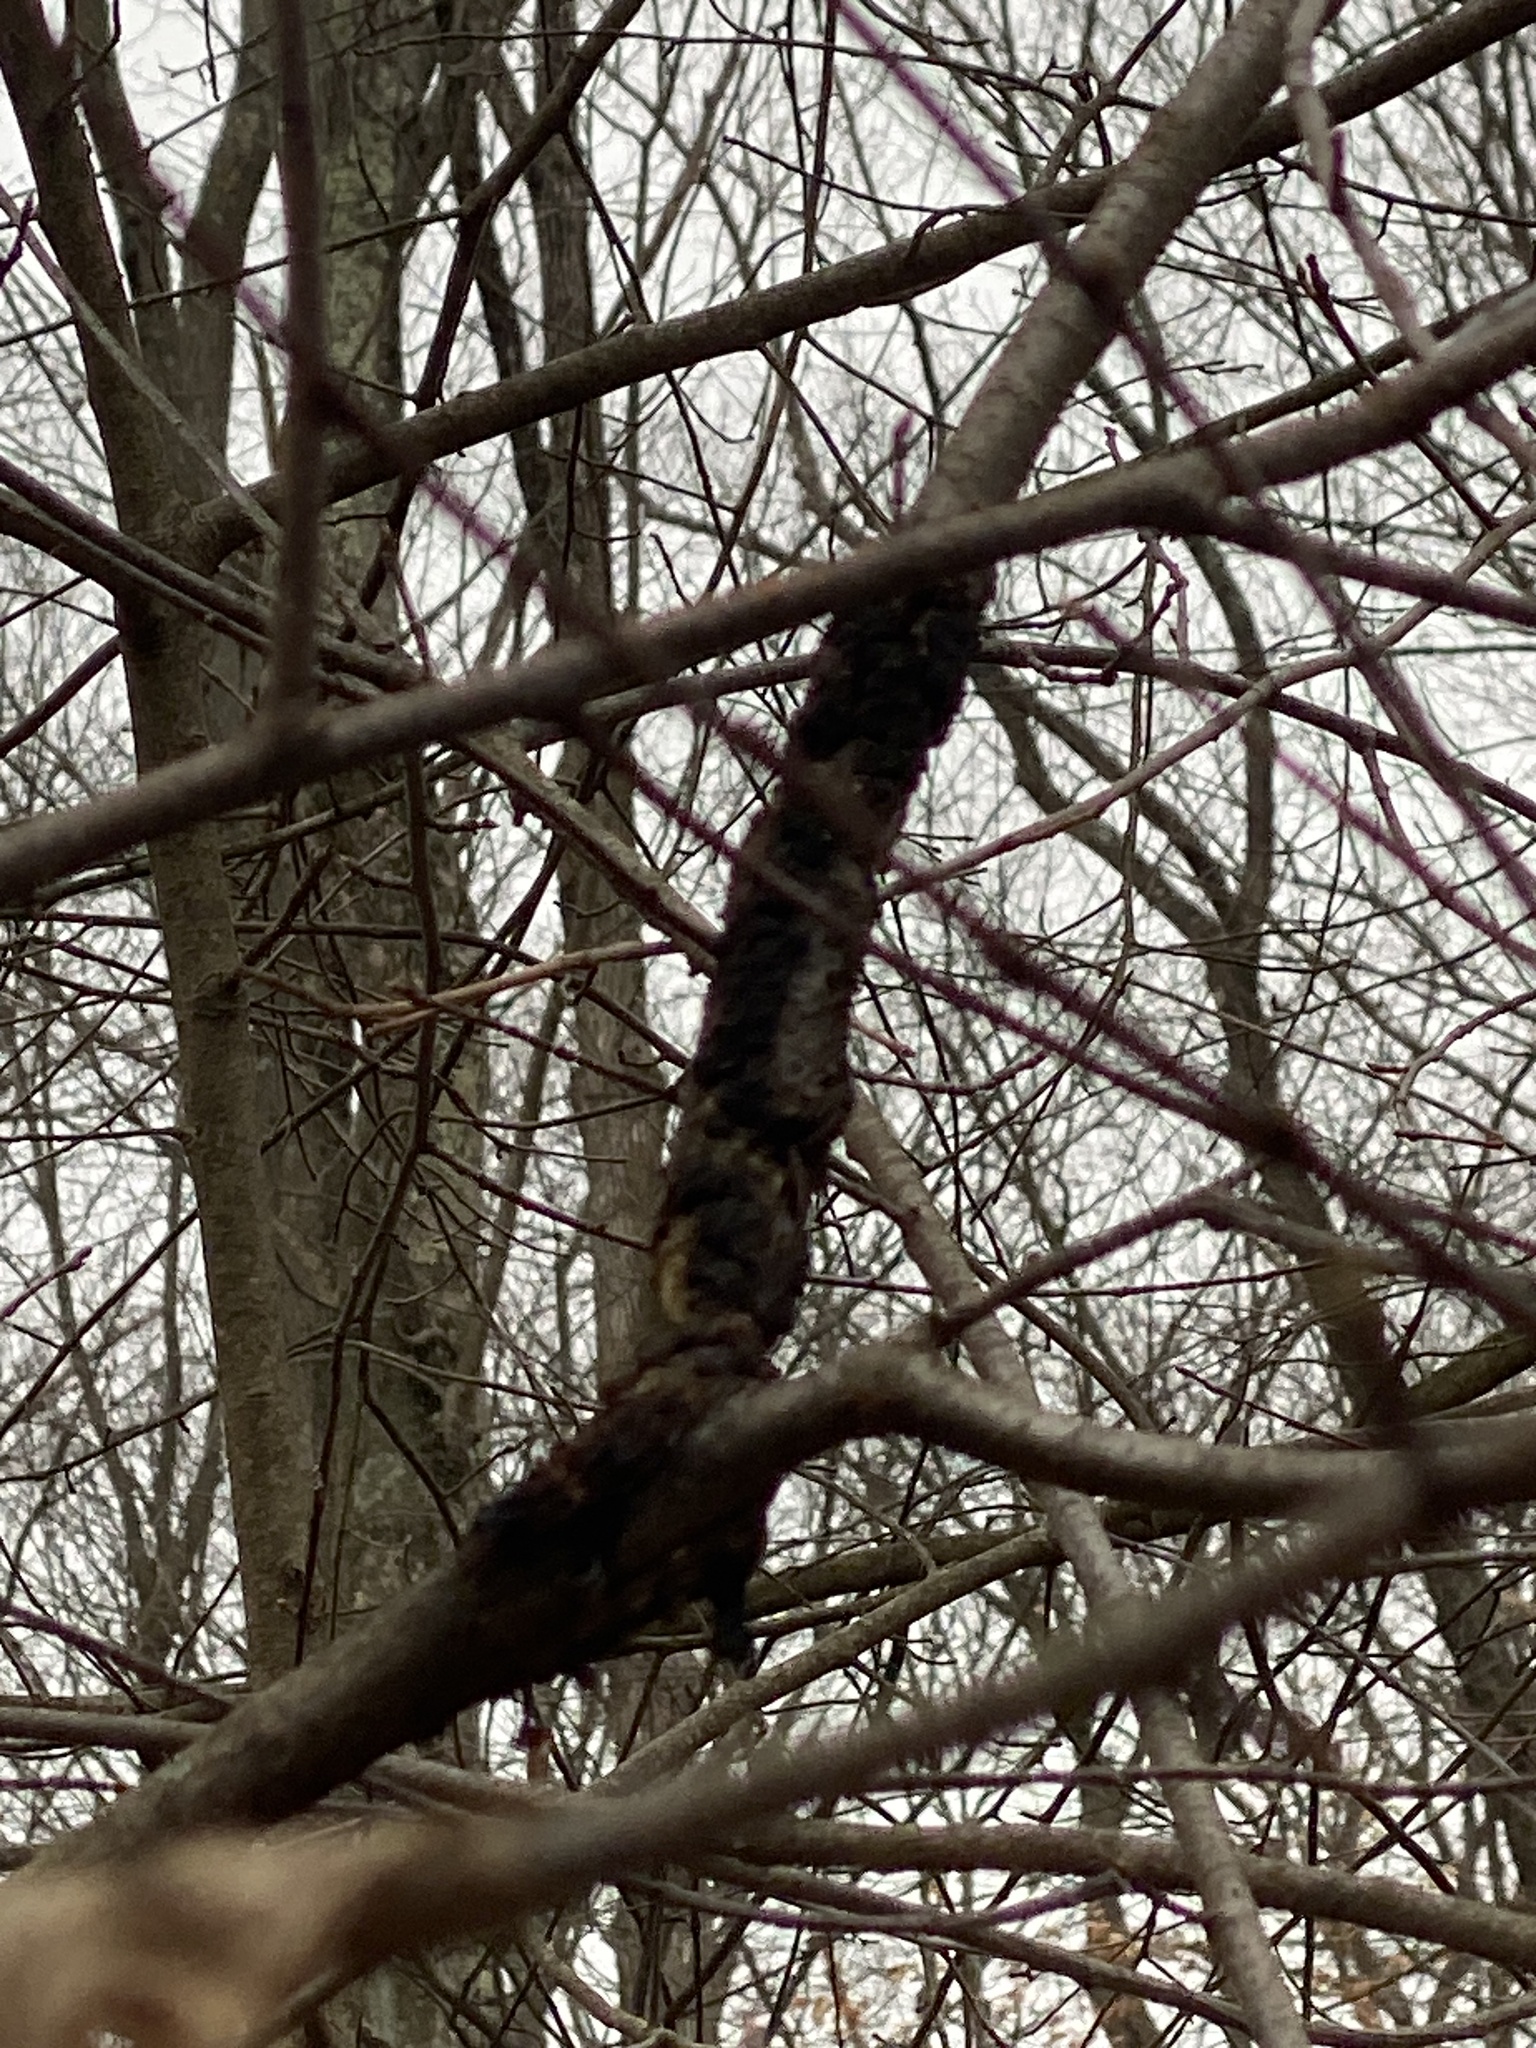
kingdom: Fungi
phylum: Ascomycota
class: Dothideomycetes
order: Venturiales
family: Venturiaceae
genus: Apiosporina
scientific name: Apiosporina morbosa
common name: Black knot
